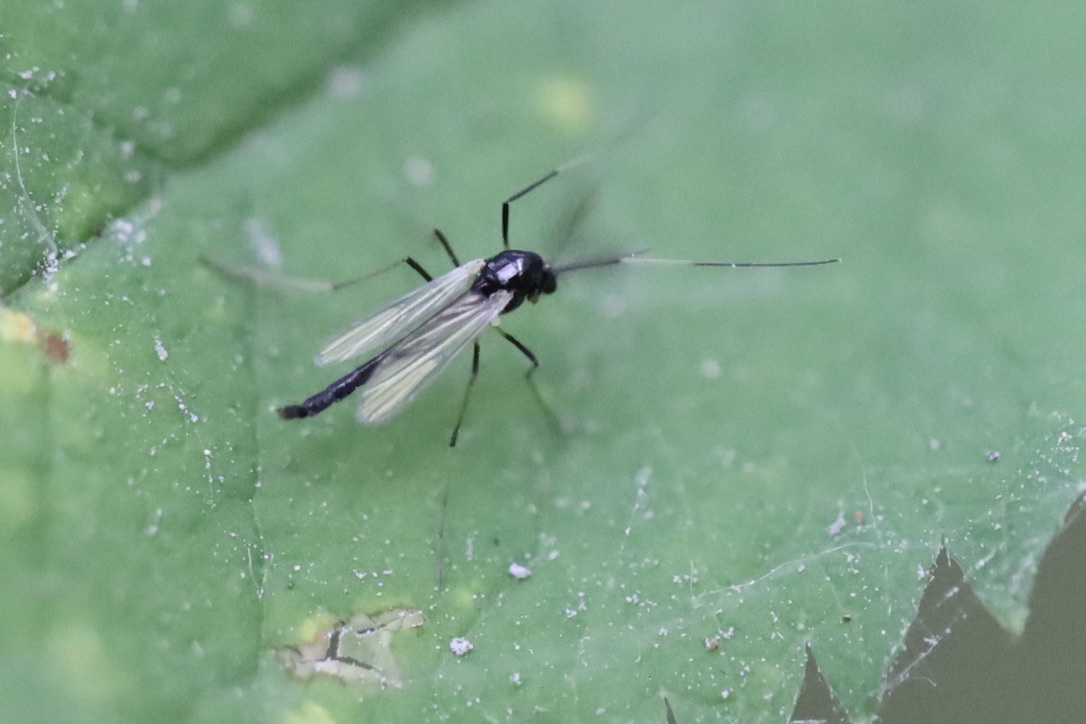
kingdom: Animalia
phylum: Arthropoda
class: Insecta
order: Diptera
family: Chironomidae
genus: Paratendipes
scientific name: Paratendipes albimanus
